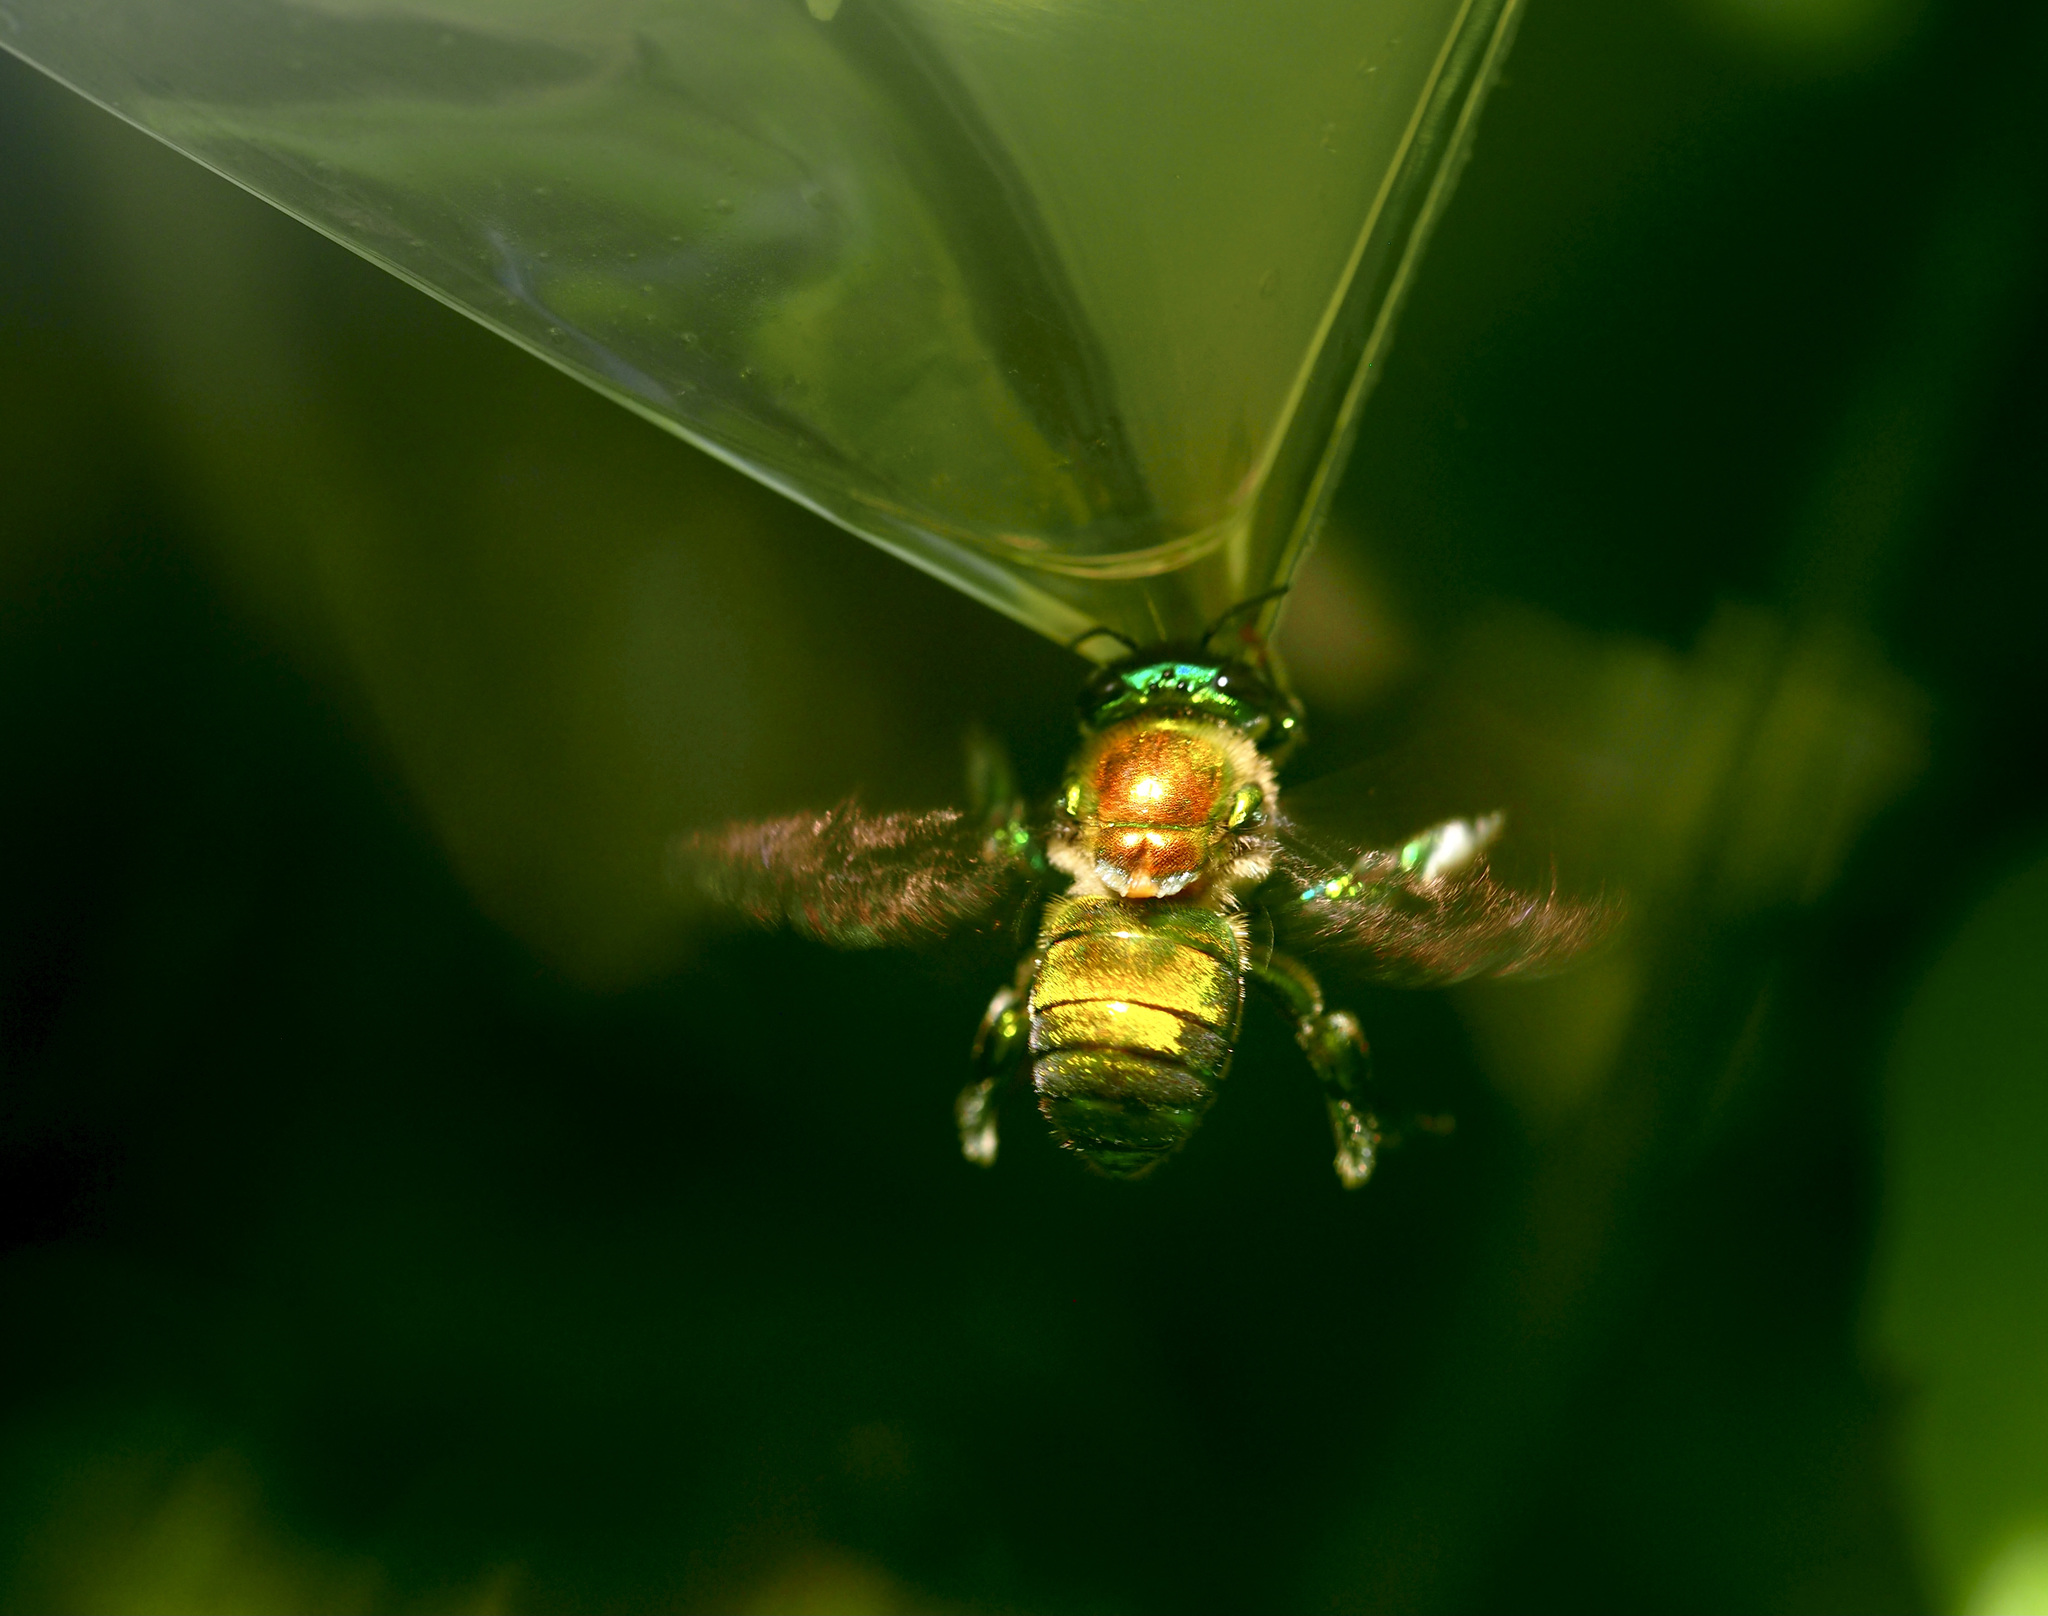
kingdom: Animalia
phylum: Arthropoda
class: Insecta
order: Hymenoptera
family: Apidae
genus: Euglossa
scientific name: Euglossa championi
